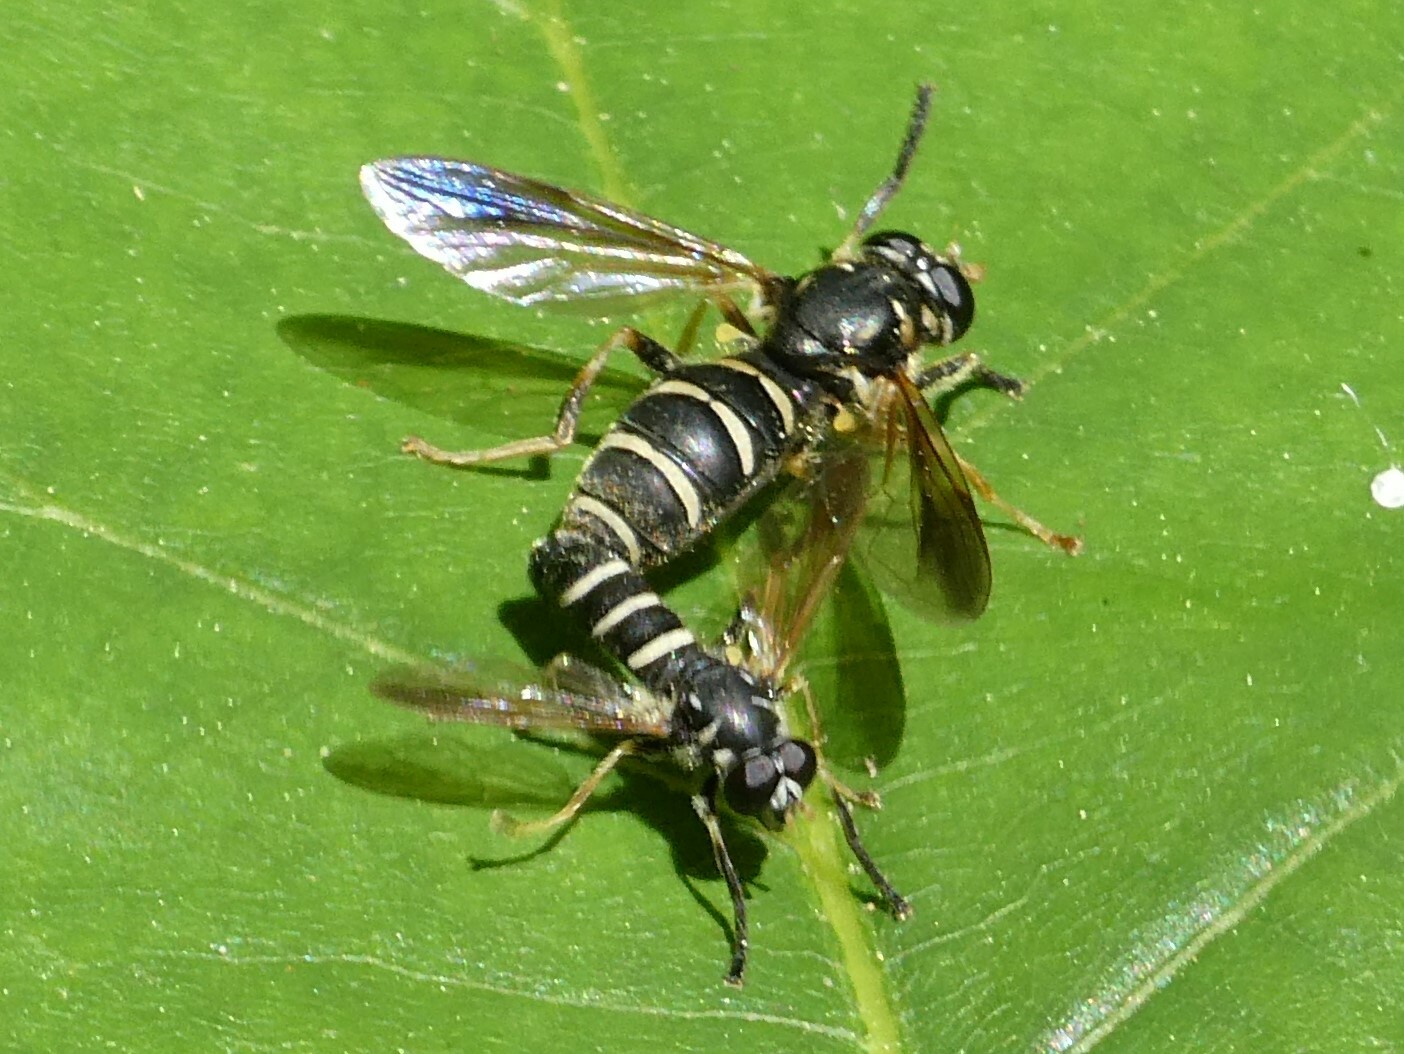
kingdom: Animalia
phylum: Arthropoda
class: Insecta
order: Diptera
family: Syrphidae
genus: Temnostoma
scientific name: Temnostoma
